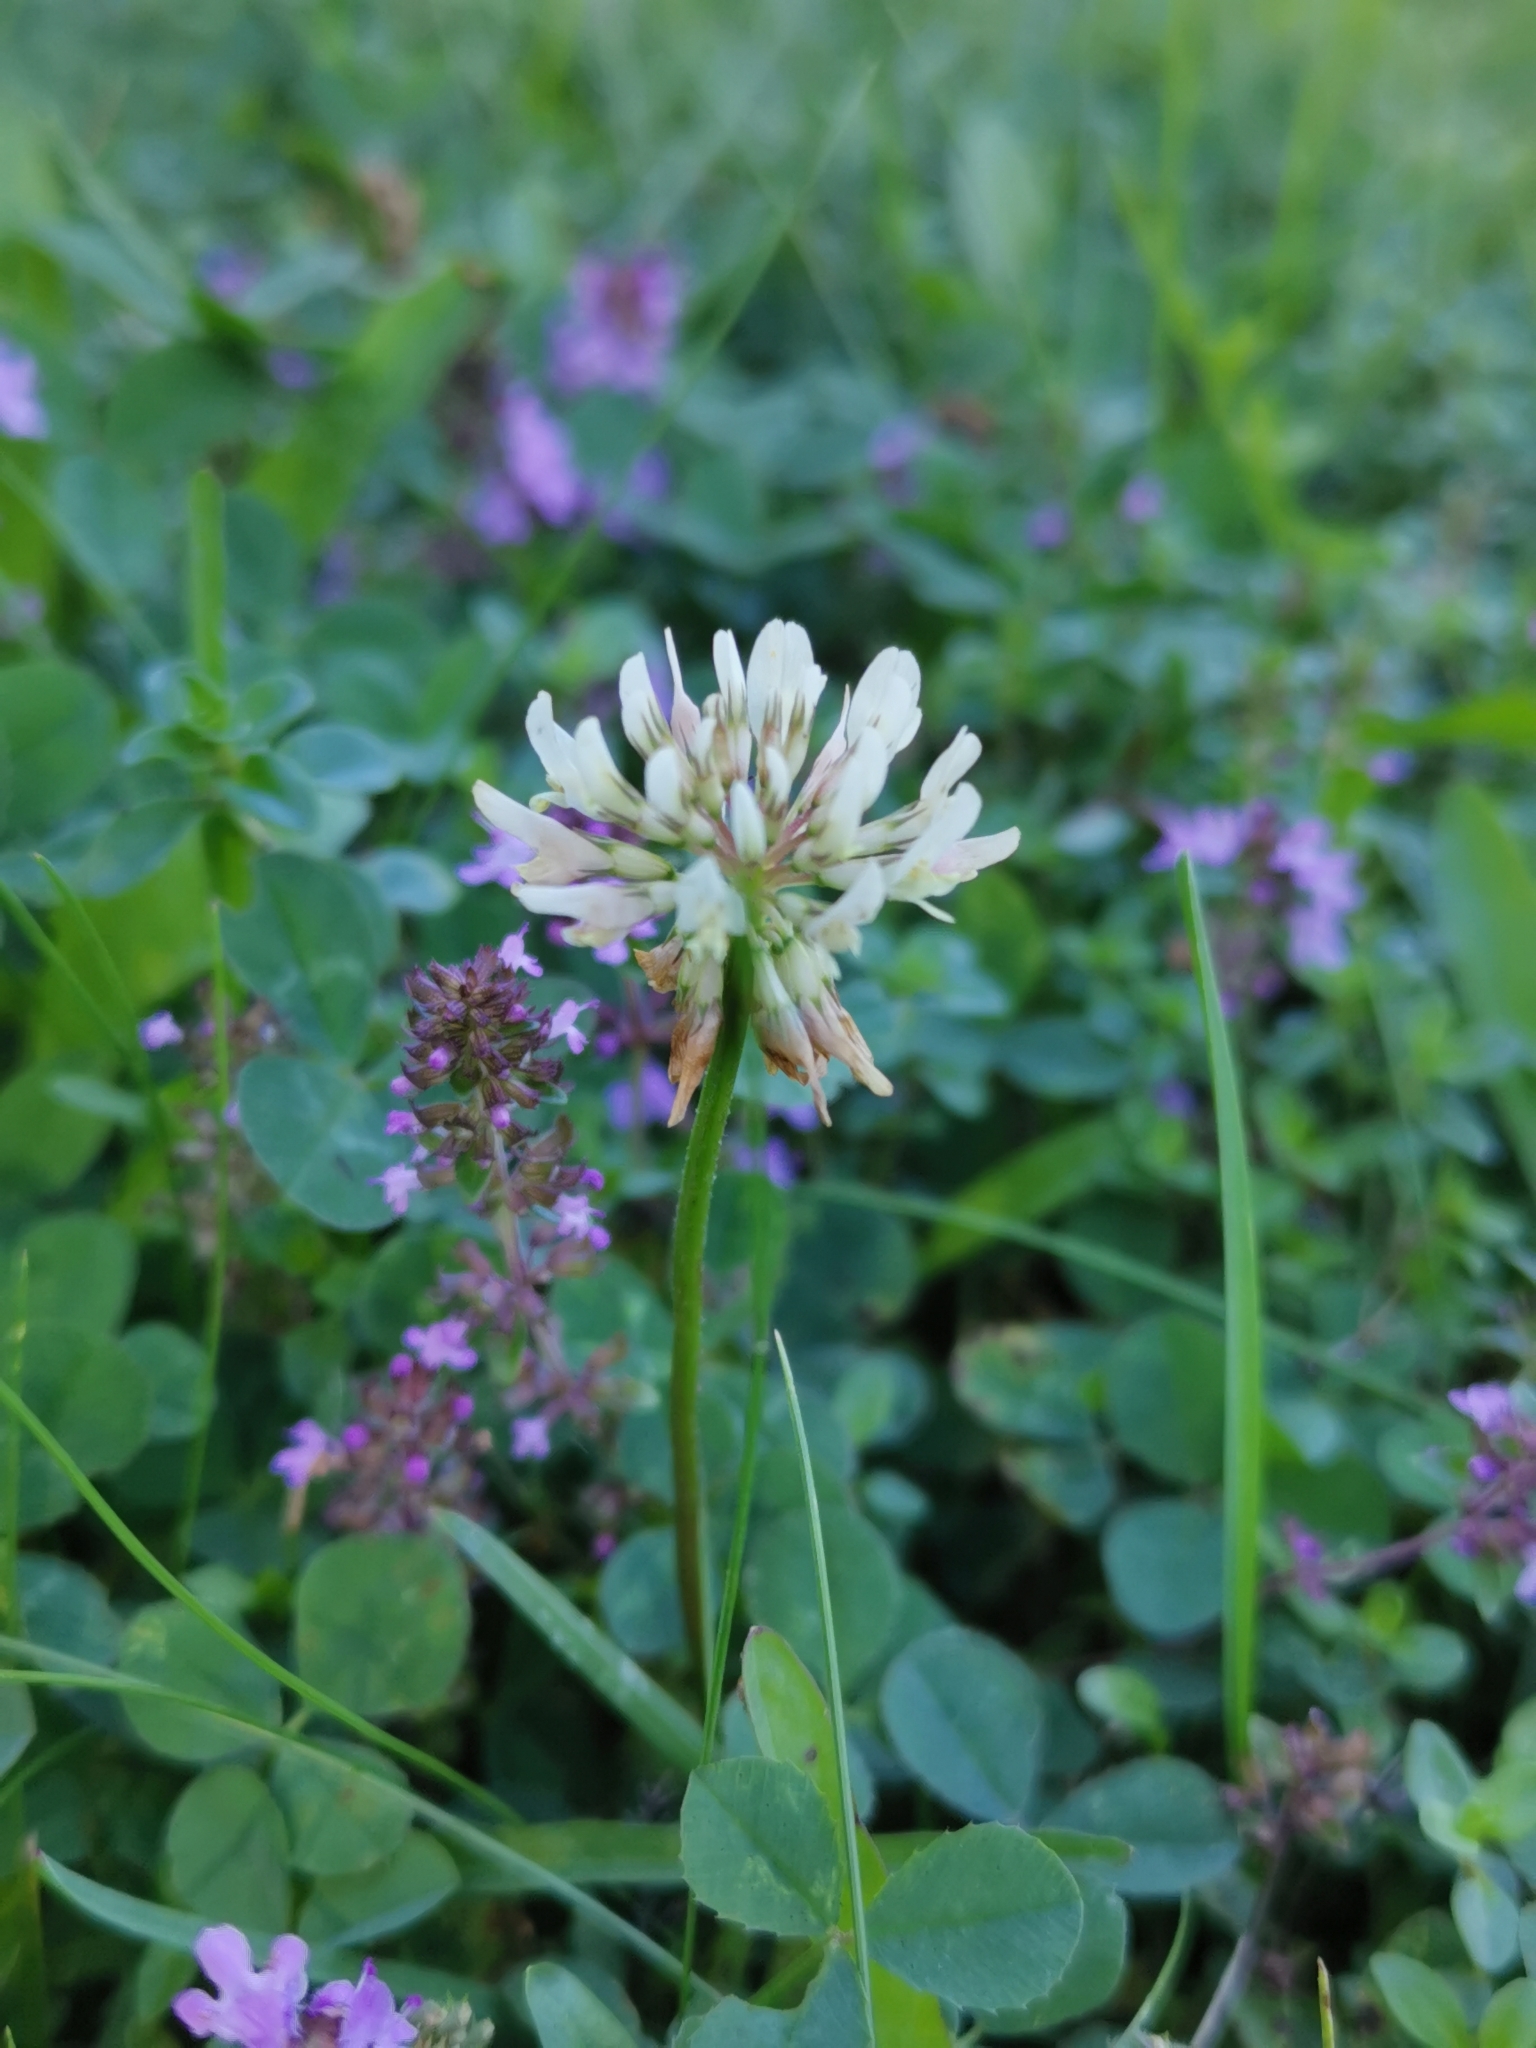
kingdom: Plantae
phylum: Tracheophyta
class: Magnoliopsida
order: Fabales
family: Fabaceae
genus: Trifolium
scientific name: Trifolium repens
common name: White clover
